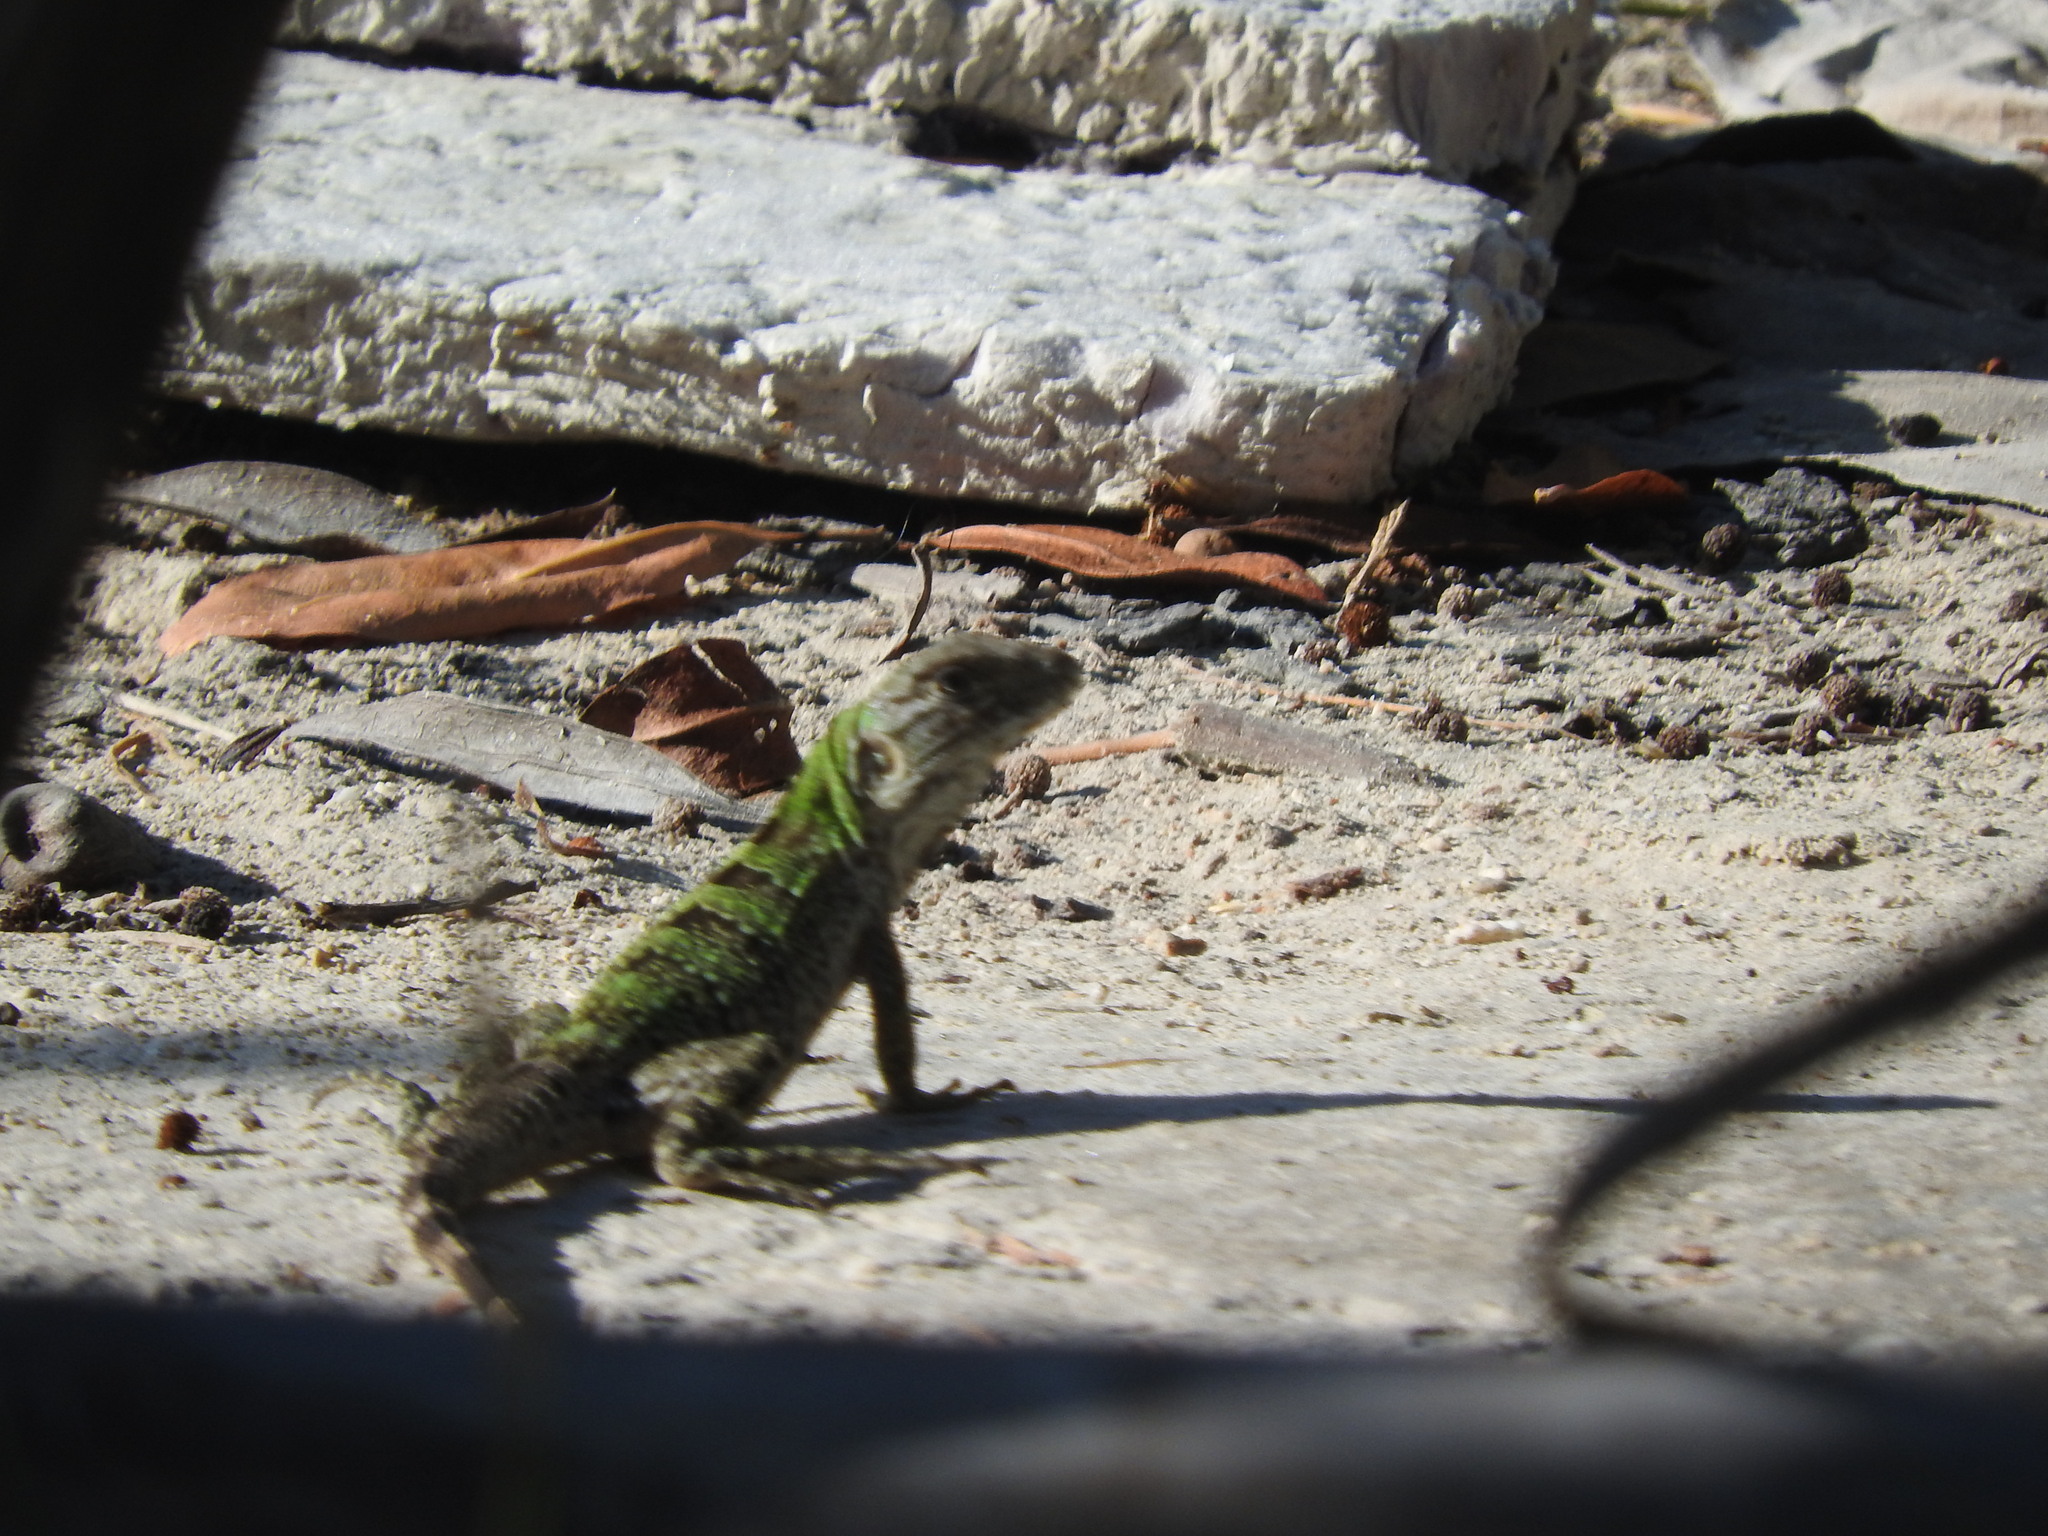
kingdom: Animalia
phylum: Chordata
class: Squamata
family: Iguanidae
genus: Ctenosaura
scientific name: Ctenosaura similis
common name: Black spiny-tailed iguana
